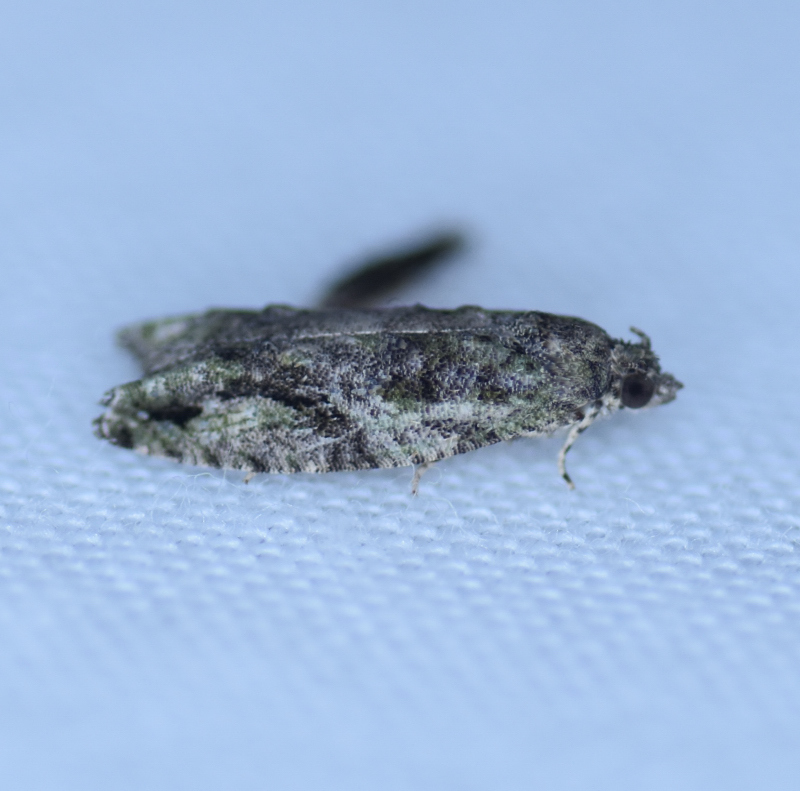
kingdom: Animalia
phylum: Arthropoda
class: Insecta
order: Lepidoptera
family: Tortricidae
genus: Proteoteras
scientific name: Proteoteras aesculana
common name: Maple twig borer moth
